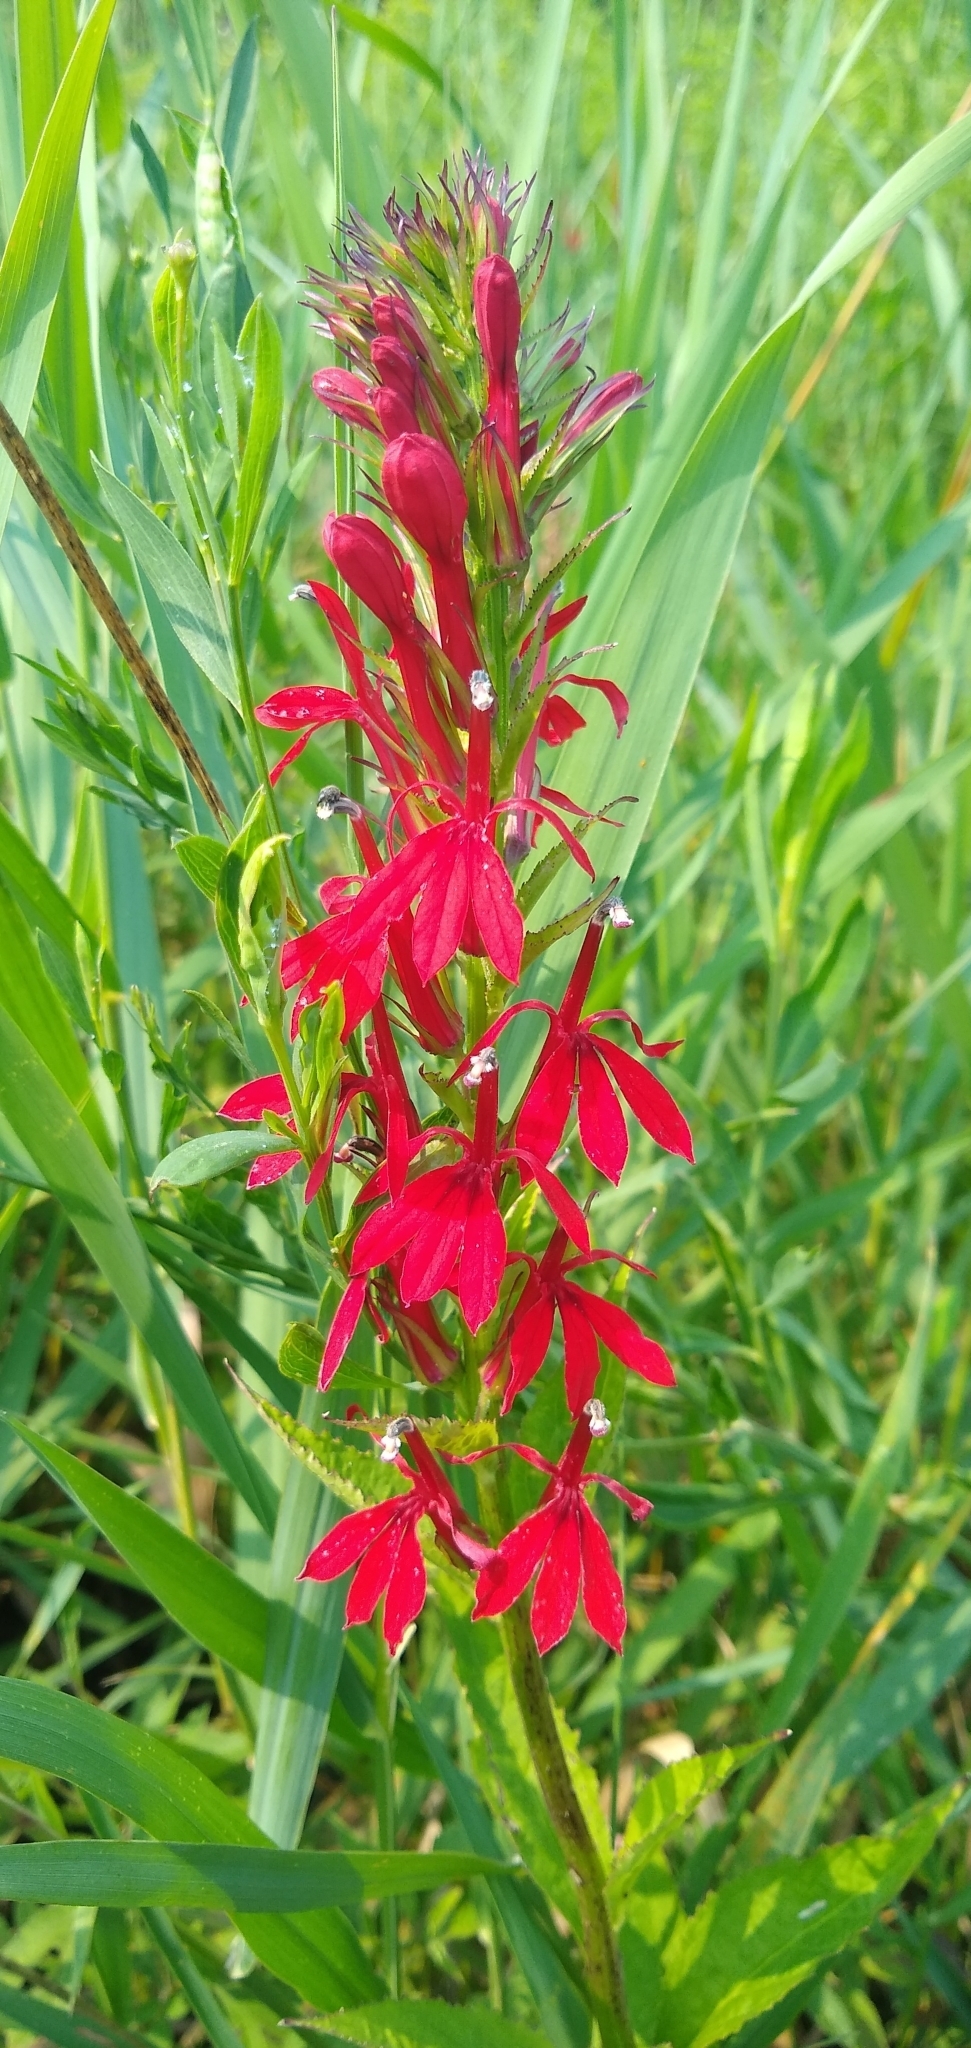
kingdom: Plantae
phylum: Tracheophyta
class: Magnoliopsida
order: Asterales
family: Campanulaceae
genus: Lobelia
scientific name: Lobelia cardinalis
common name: Cardinal flower
